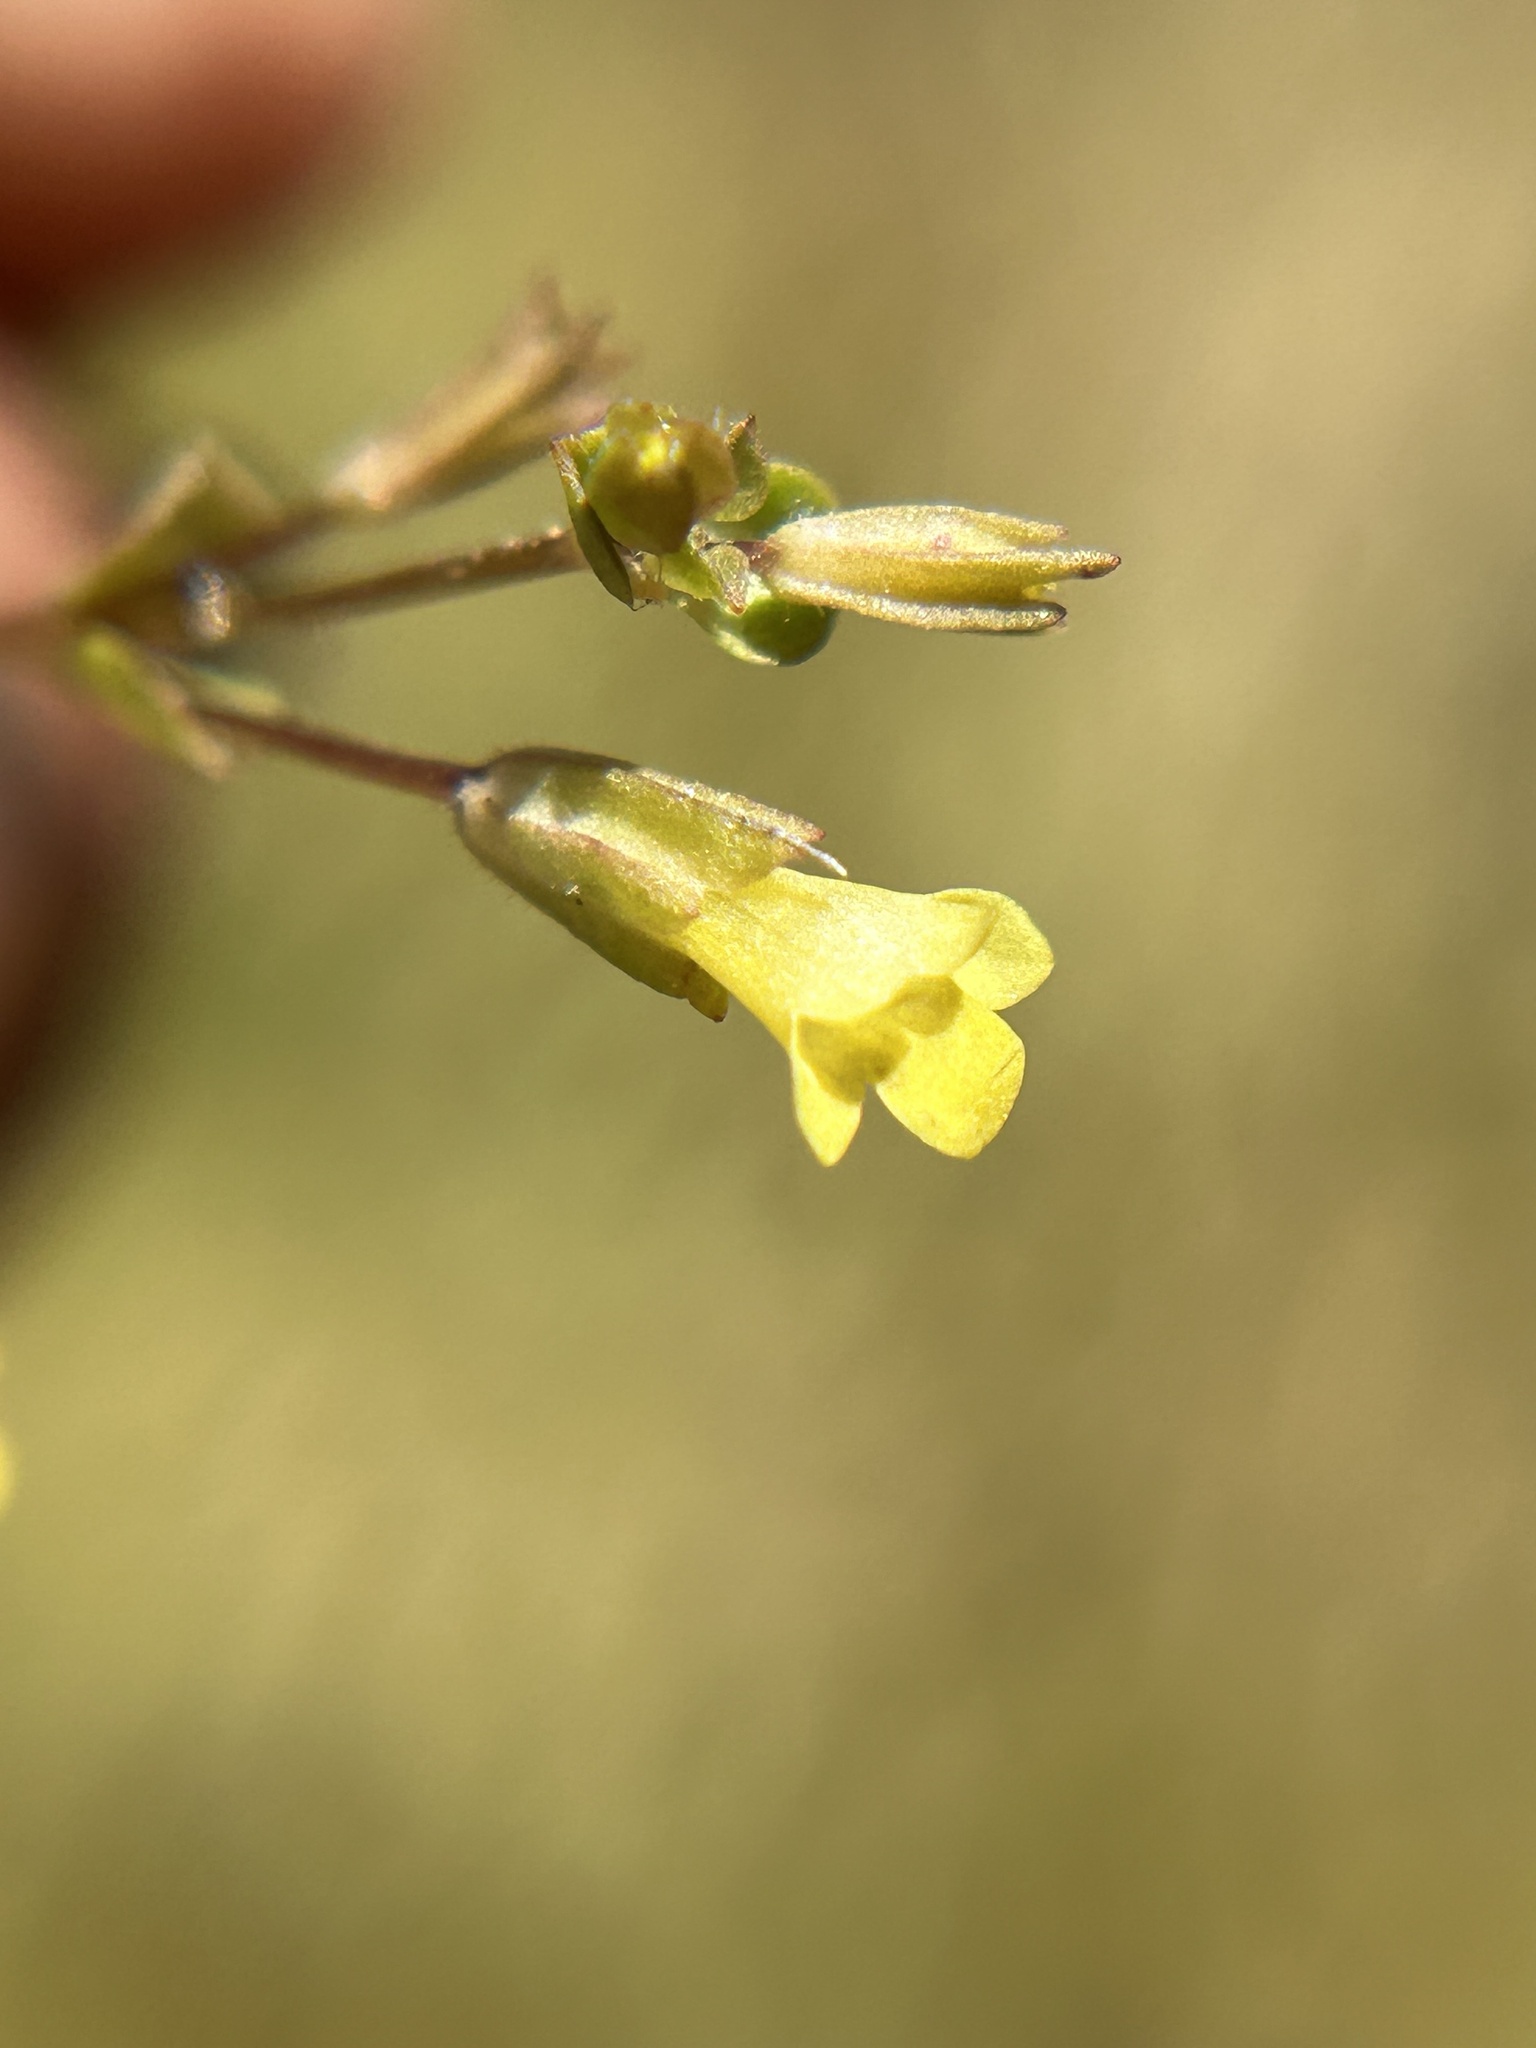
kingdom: Plantae
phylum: Tracheophyta
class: Magnoliopsida
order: Lamiales
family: Phrymaceae
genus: Erythranthe
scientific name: Erythranthe arvensis
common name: Field monkeyflower
